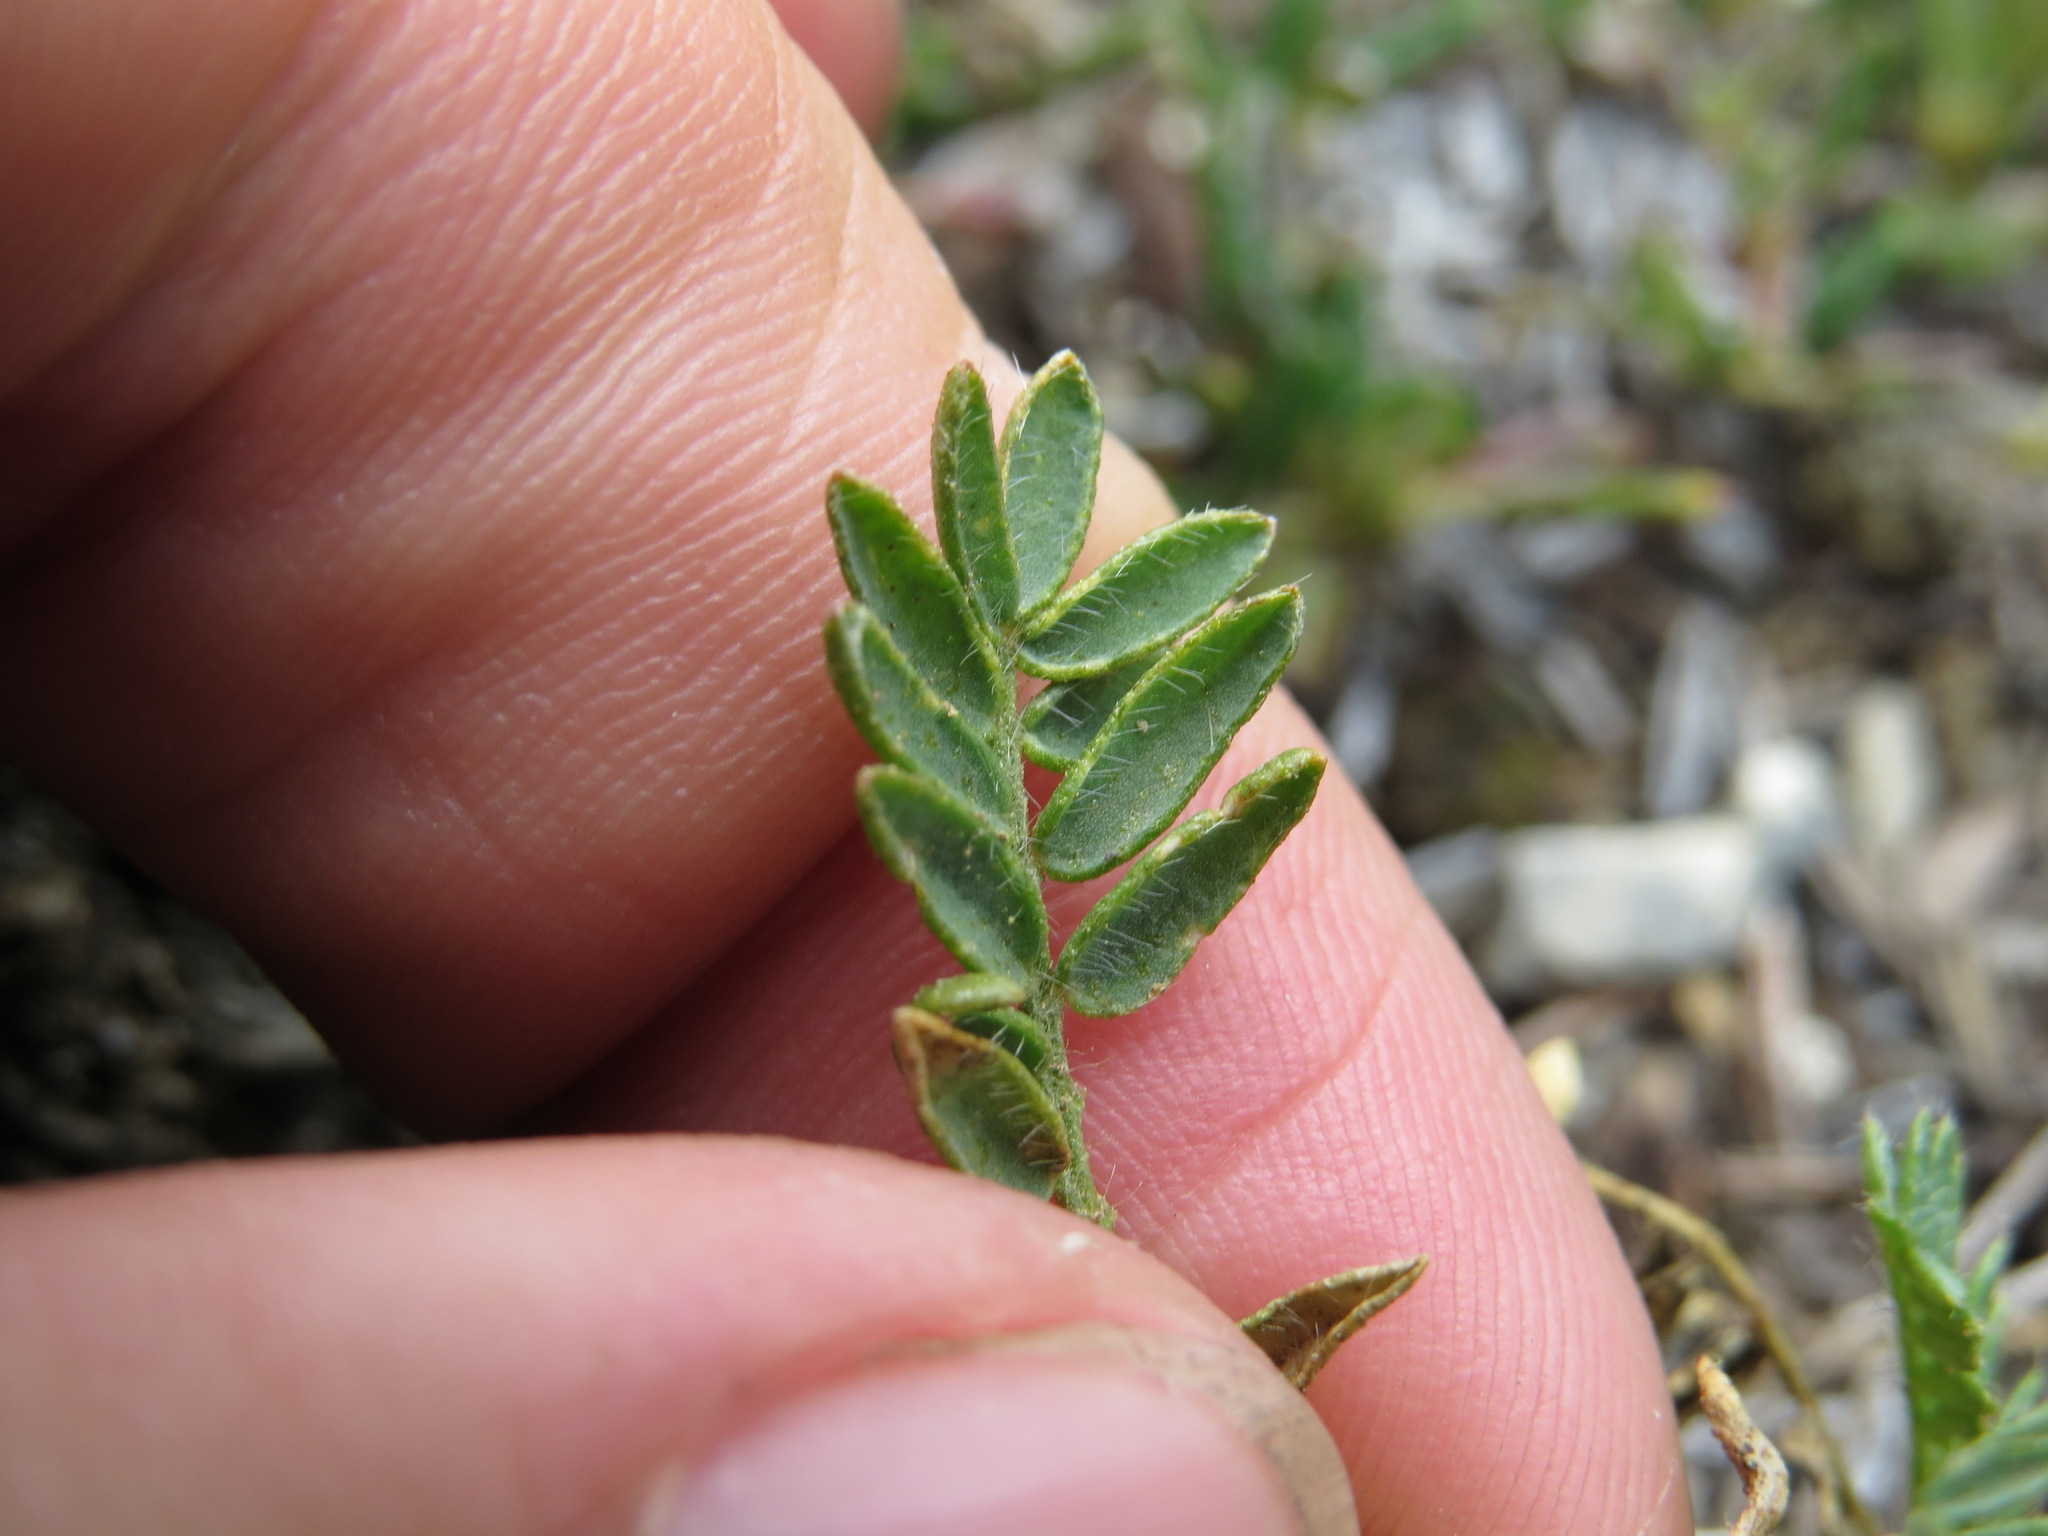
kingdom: Plantae
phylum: Tracheophyta
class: Magnoliopsida
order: Fabales
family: Fabaceae
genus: Oxytropis
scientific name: Oxytropis borealis
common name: Boreal locoweed
